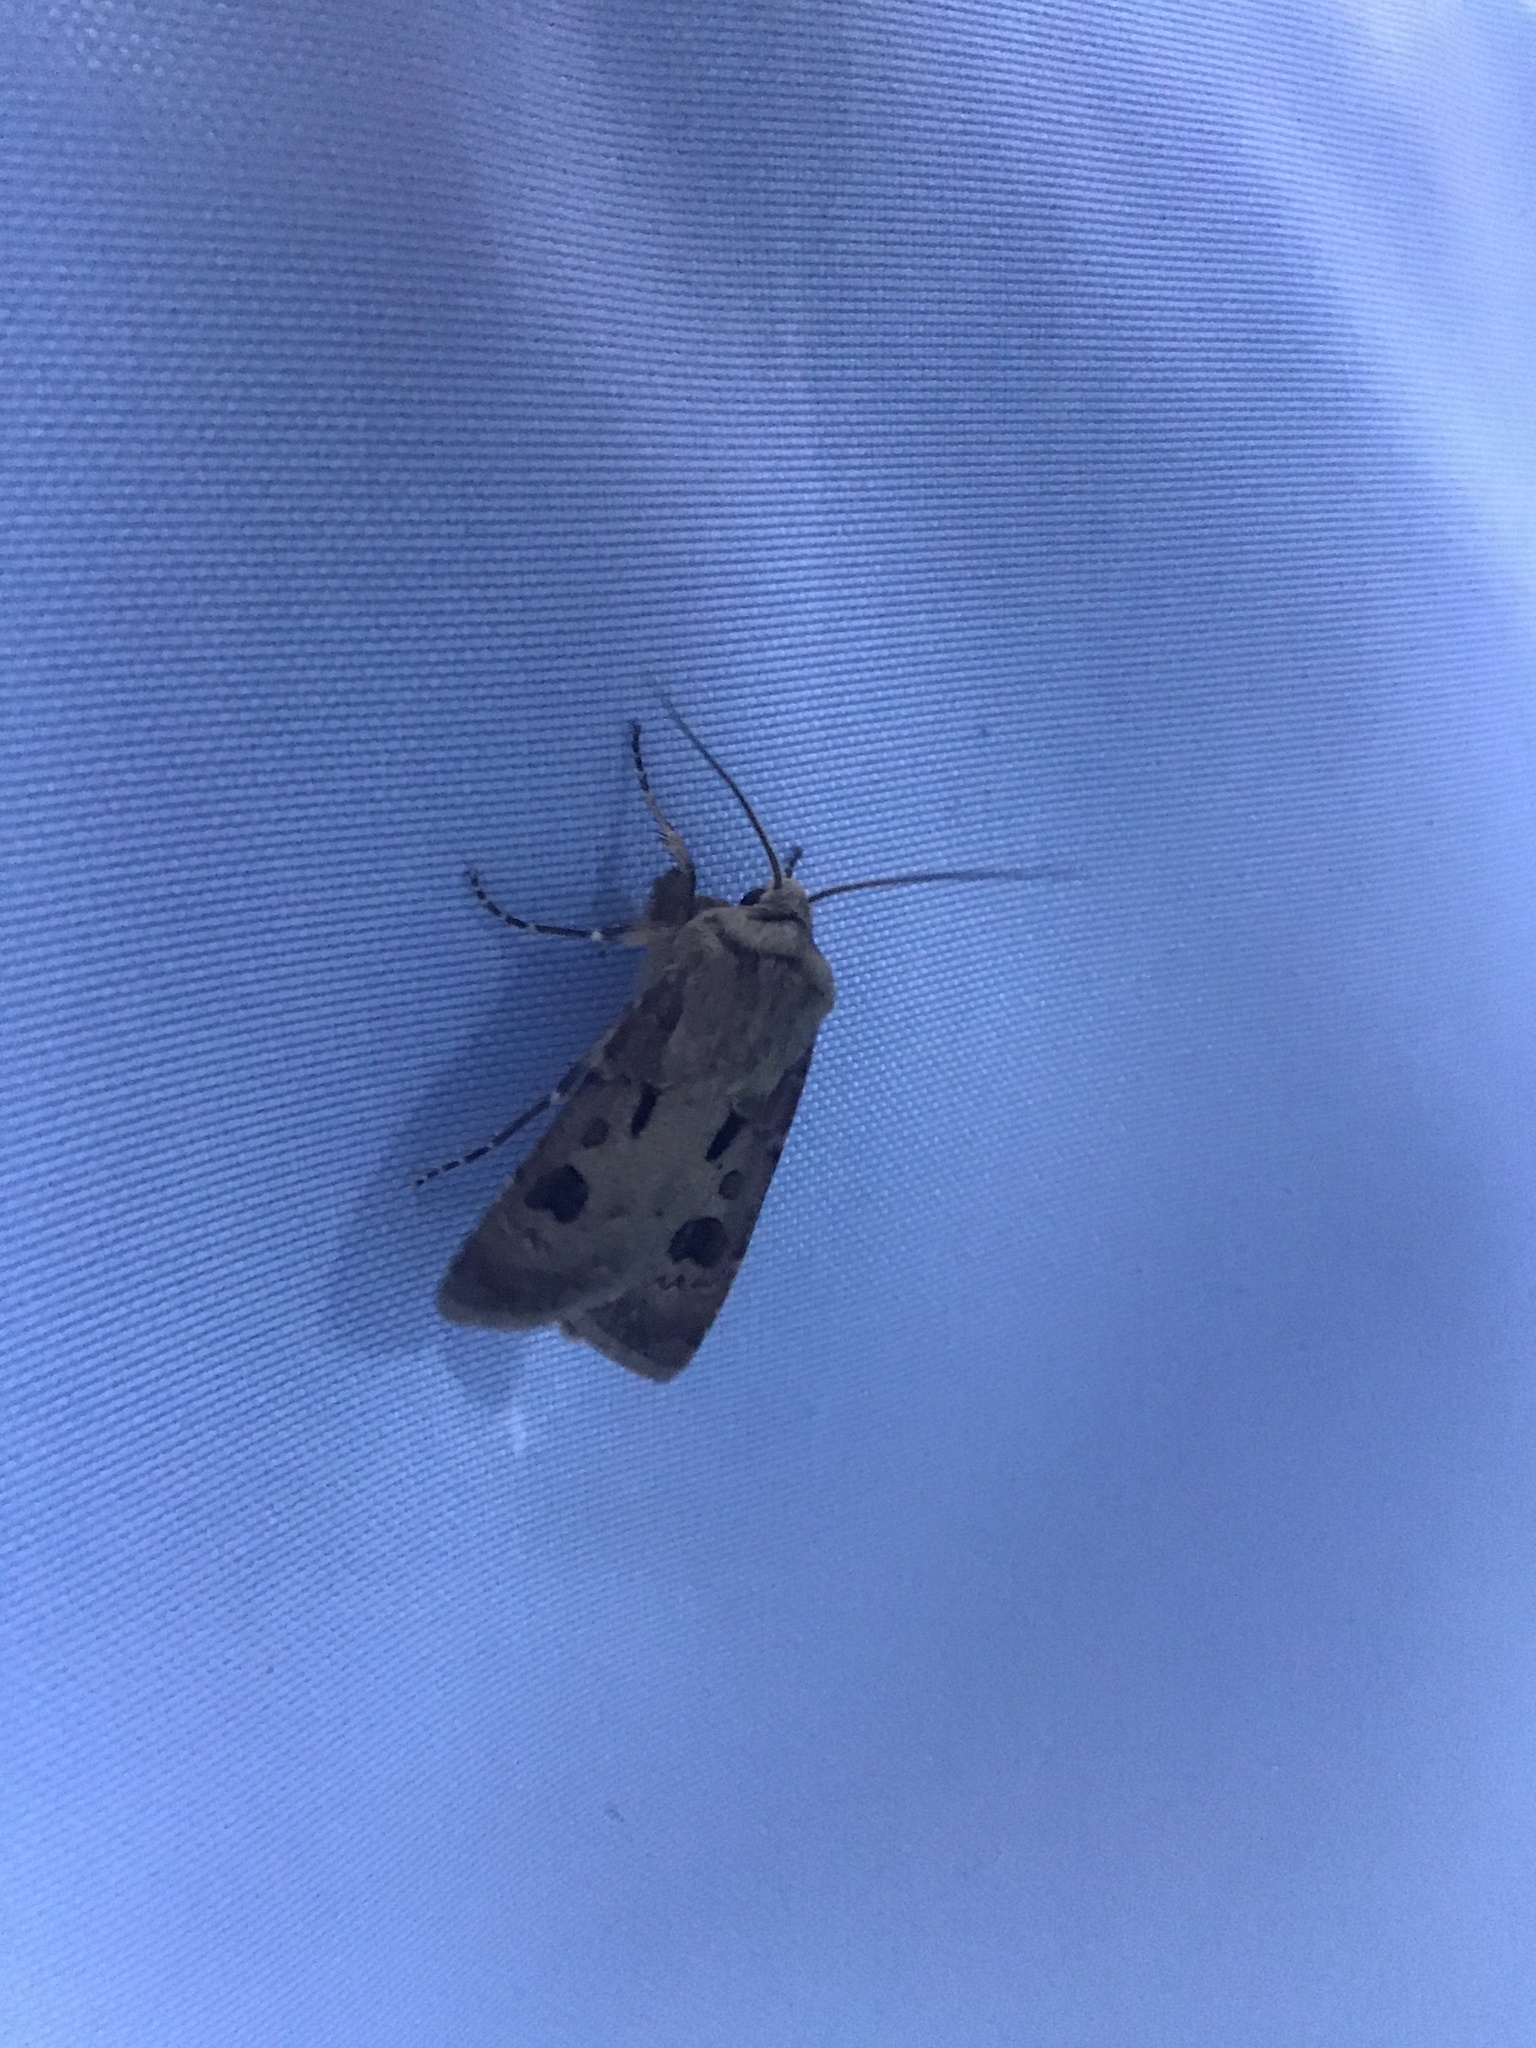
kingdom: Animalia
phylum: Arthropoda
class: Insecta
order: Lepidoptera
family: Noctuidae
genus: Agrotis
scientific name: Agrotis exclamationis
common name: Heart and dart
